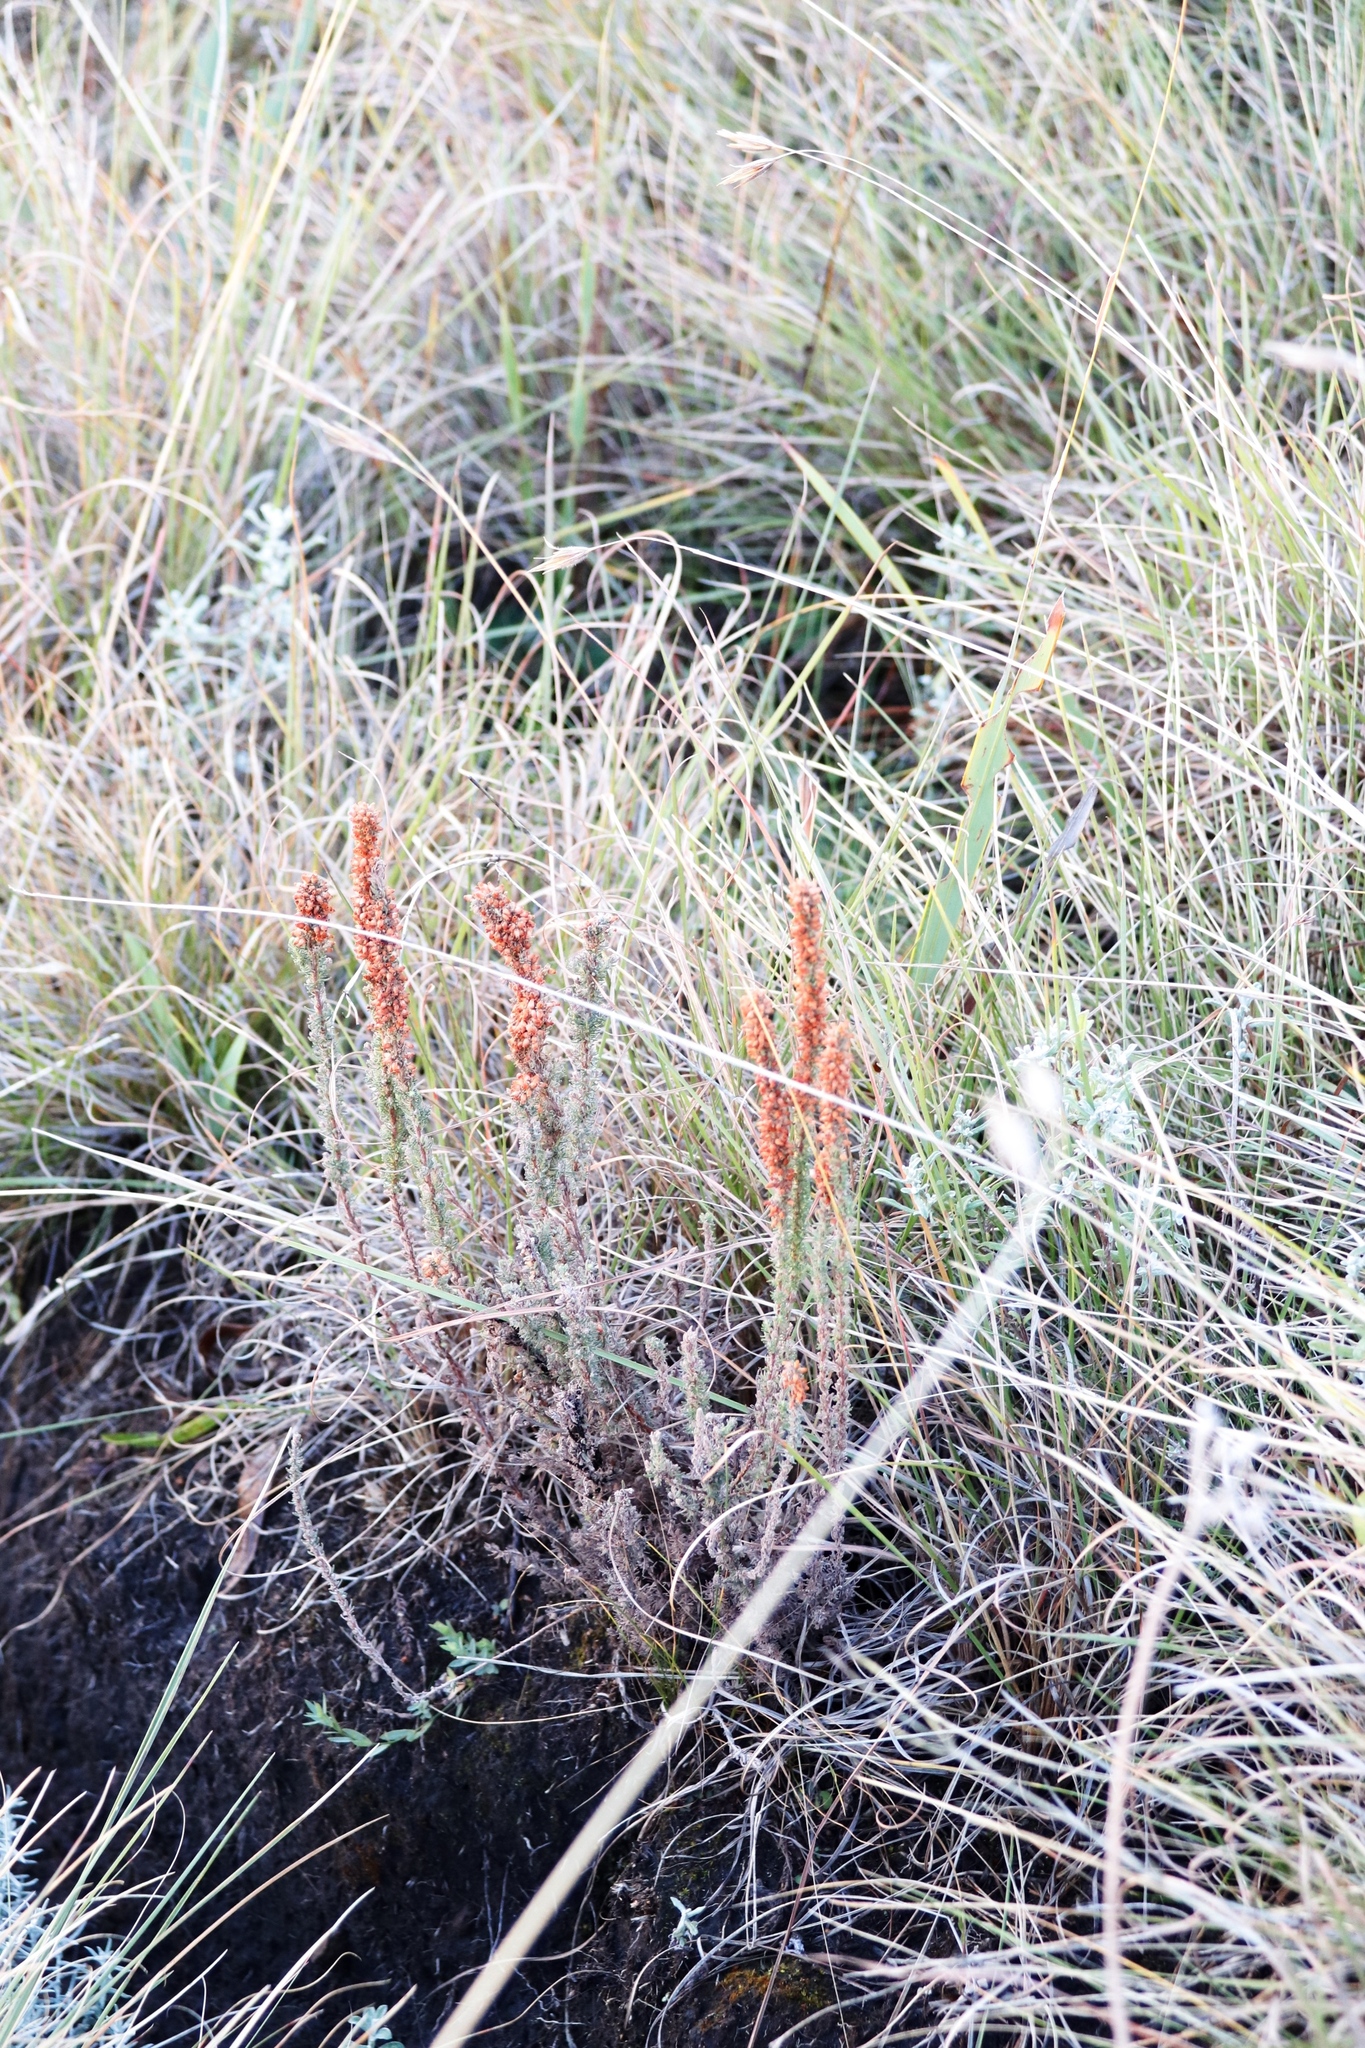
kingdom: Plantae
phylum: Tracheophyta
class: Magnoliopsida
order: Ericales
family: Ericaceae
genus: Erica
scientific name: Erica alopecurus
